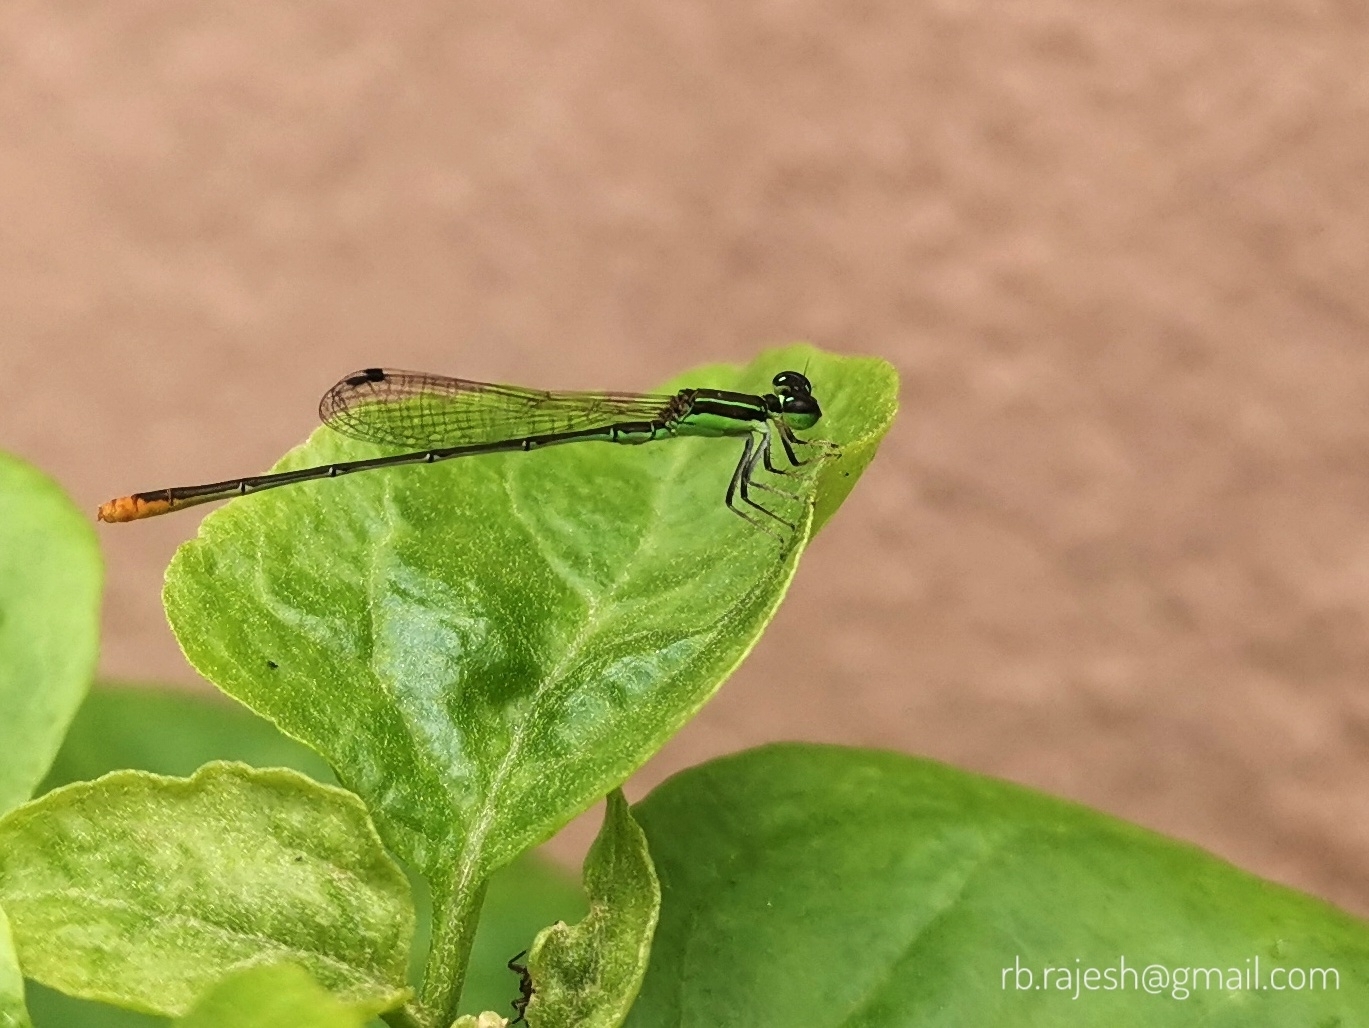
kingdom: Animalia
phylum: Arthropoda
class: Insecta
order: Odonata
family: Coenagrionidae
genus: Agriocnemis
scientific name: Agriocnemis pygmaea
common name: Pygmy wisp
